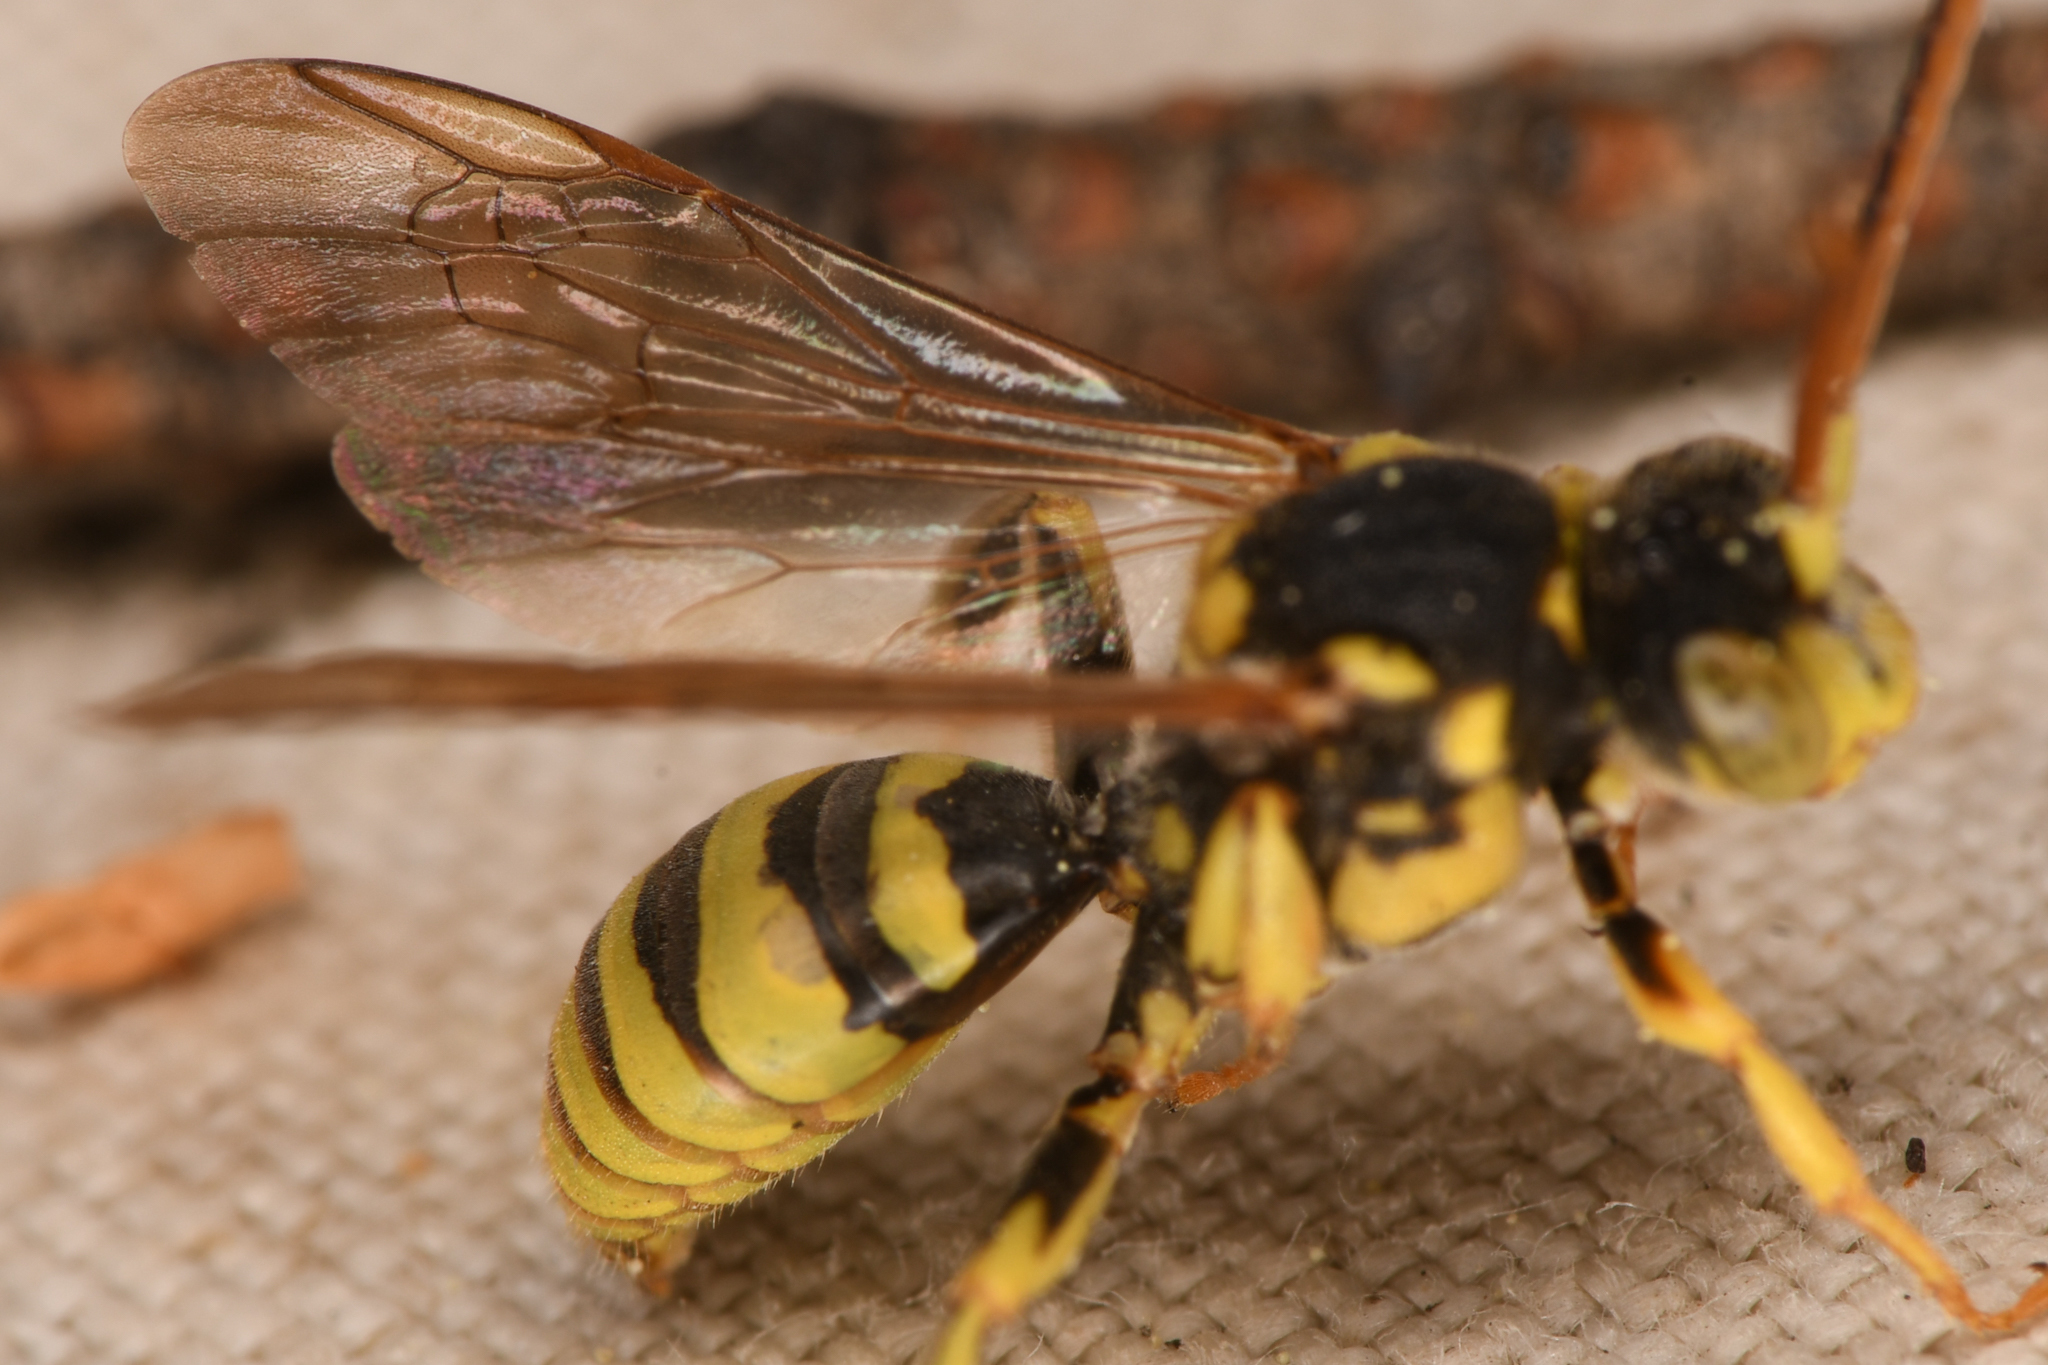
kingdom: Animalia
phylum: Arthropoda
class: Insecta
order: Hymenoptera
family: Apidae
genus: Nomada
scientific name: Nomada
